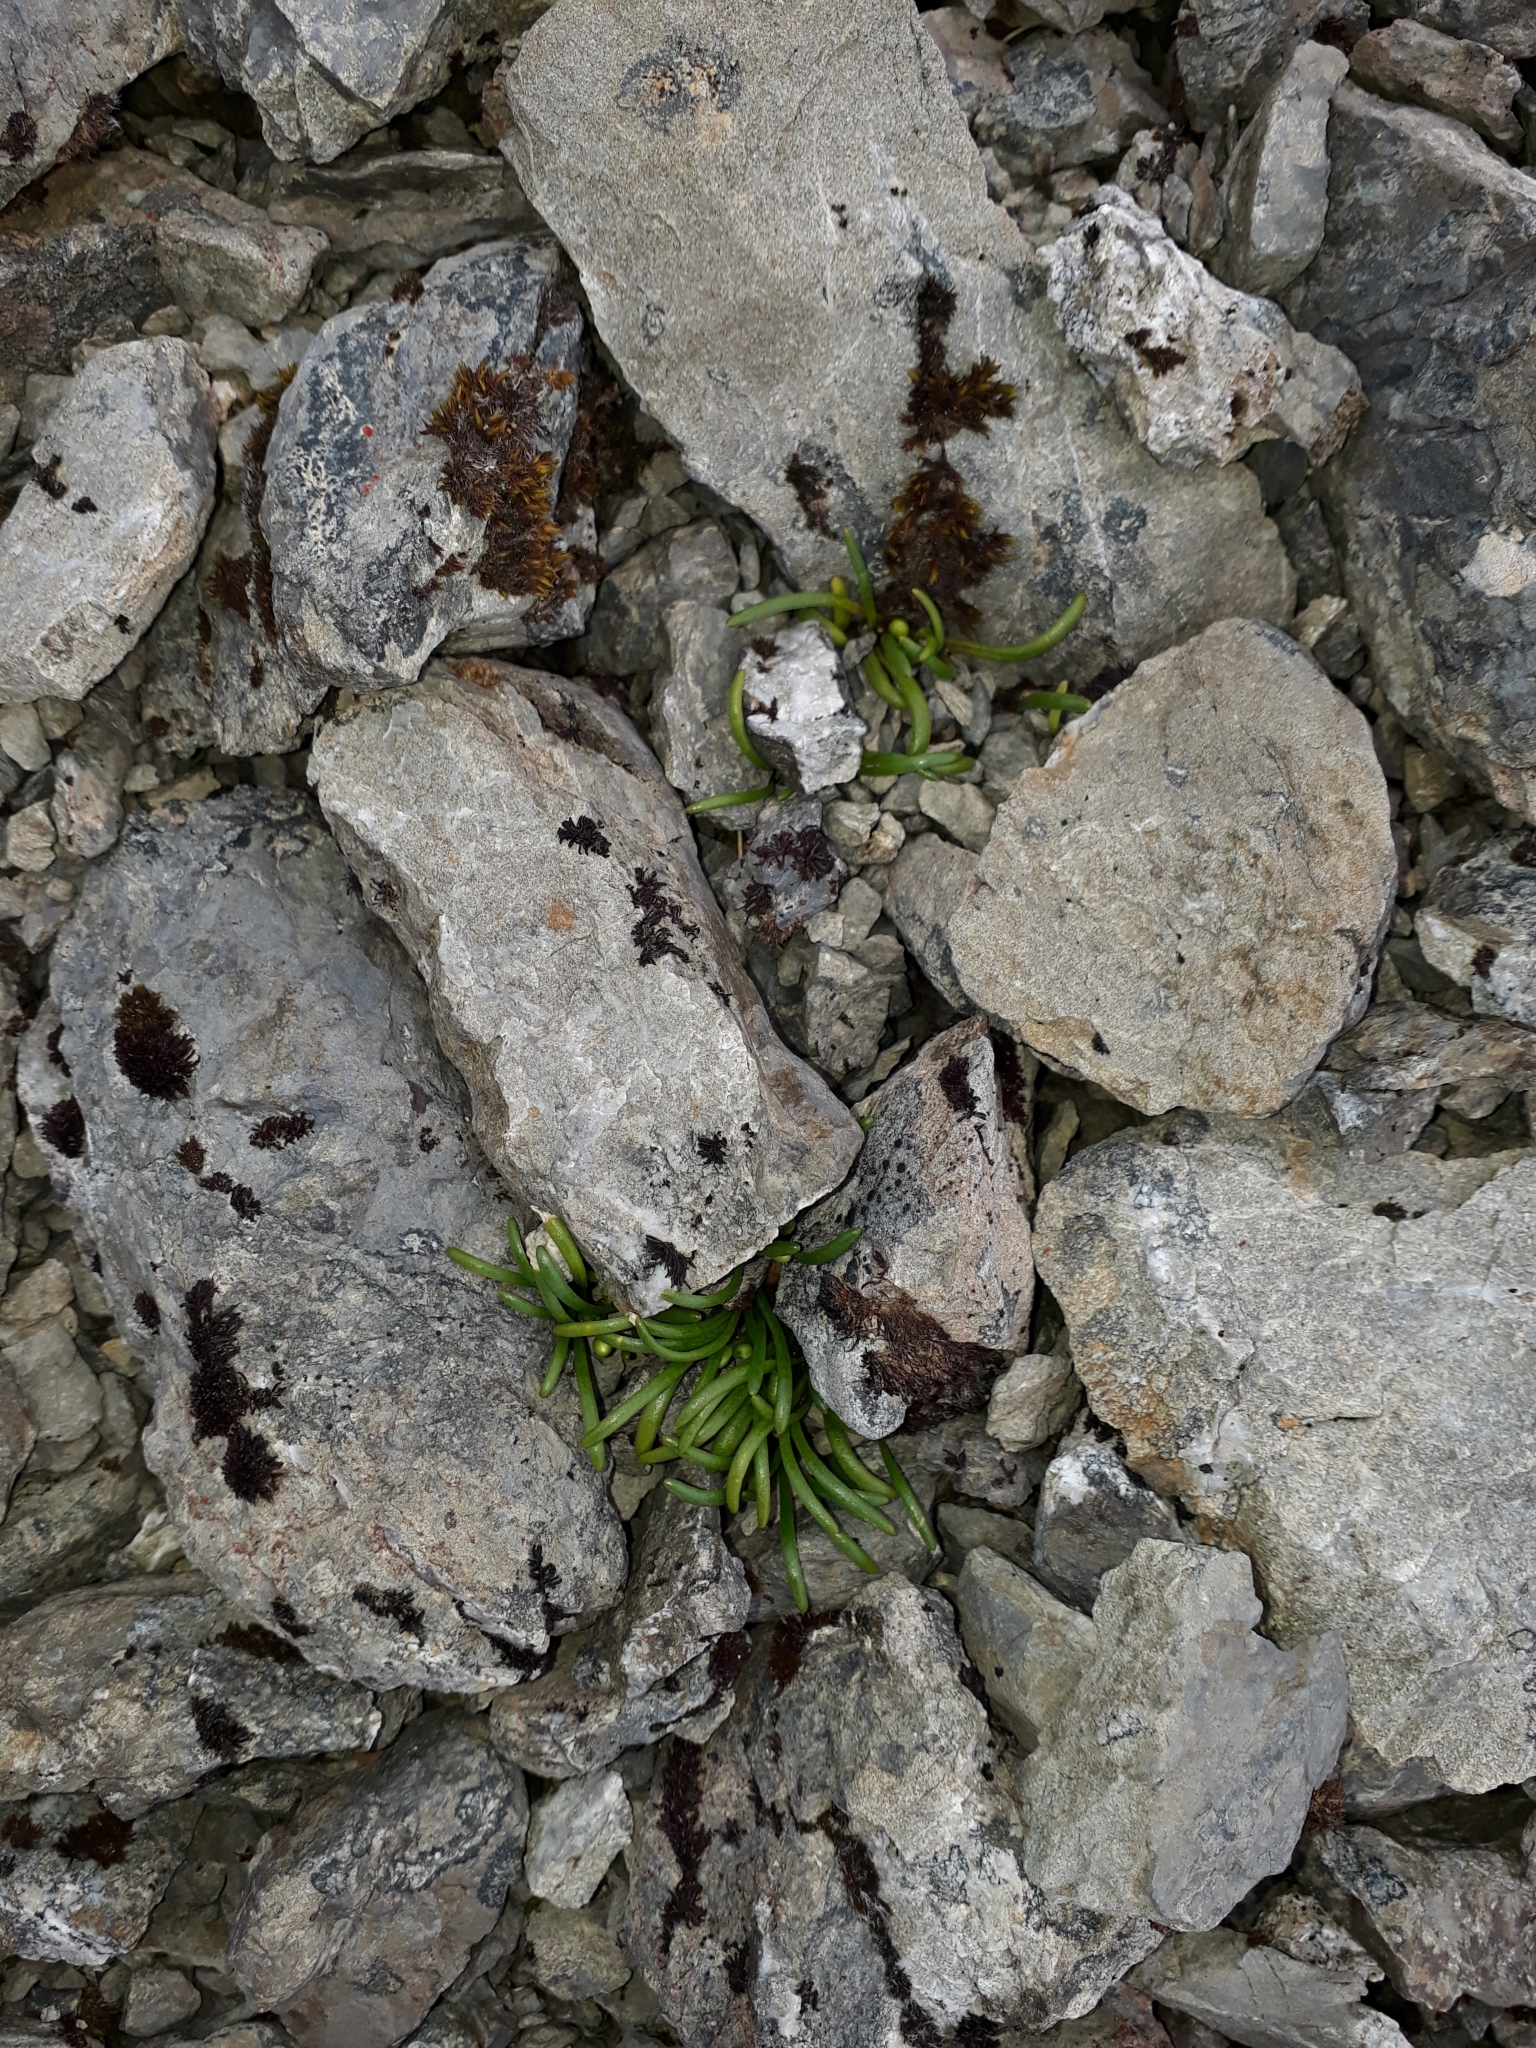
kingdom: Plantae
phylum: Tracheophyta
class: Magnoliopsida
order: Caryophyllales
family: Montiaceae
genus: Montia
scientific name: Montia calycina
